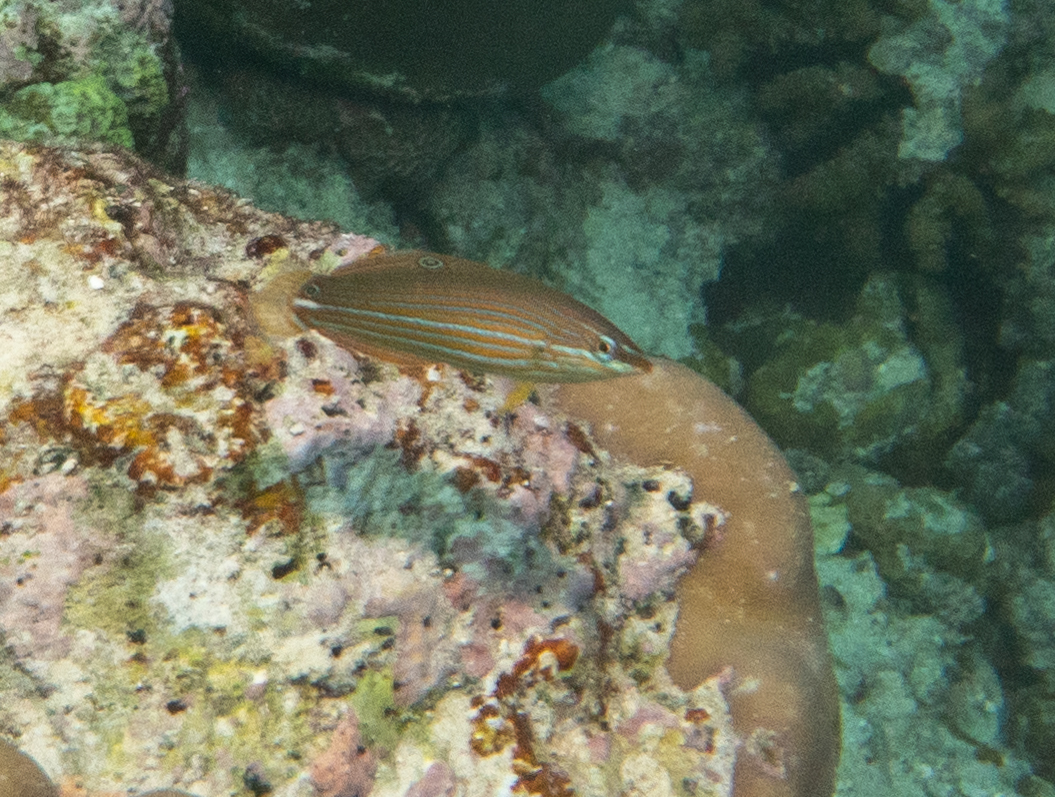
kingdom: Animalia
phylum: Chordata
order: Perciformes
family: Labridae
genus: Halichoeres
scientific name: Halichoeres melanurus
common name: Hoeven's wrasse
